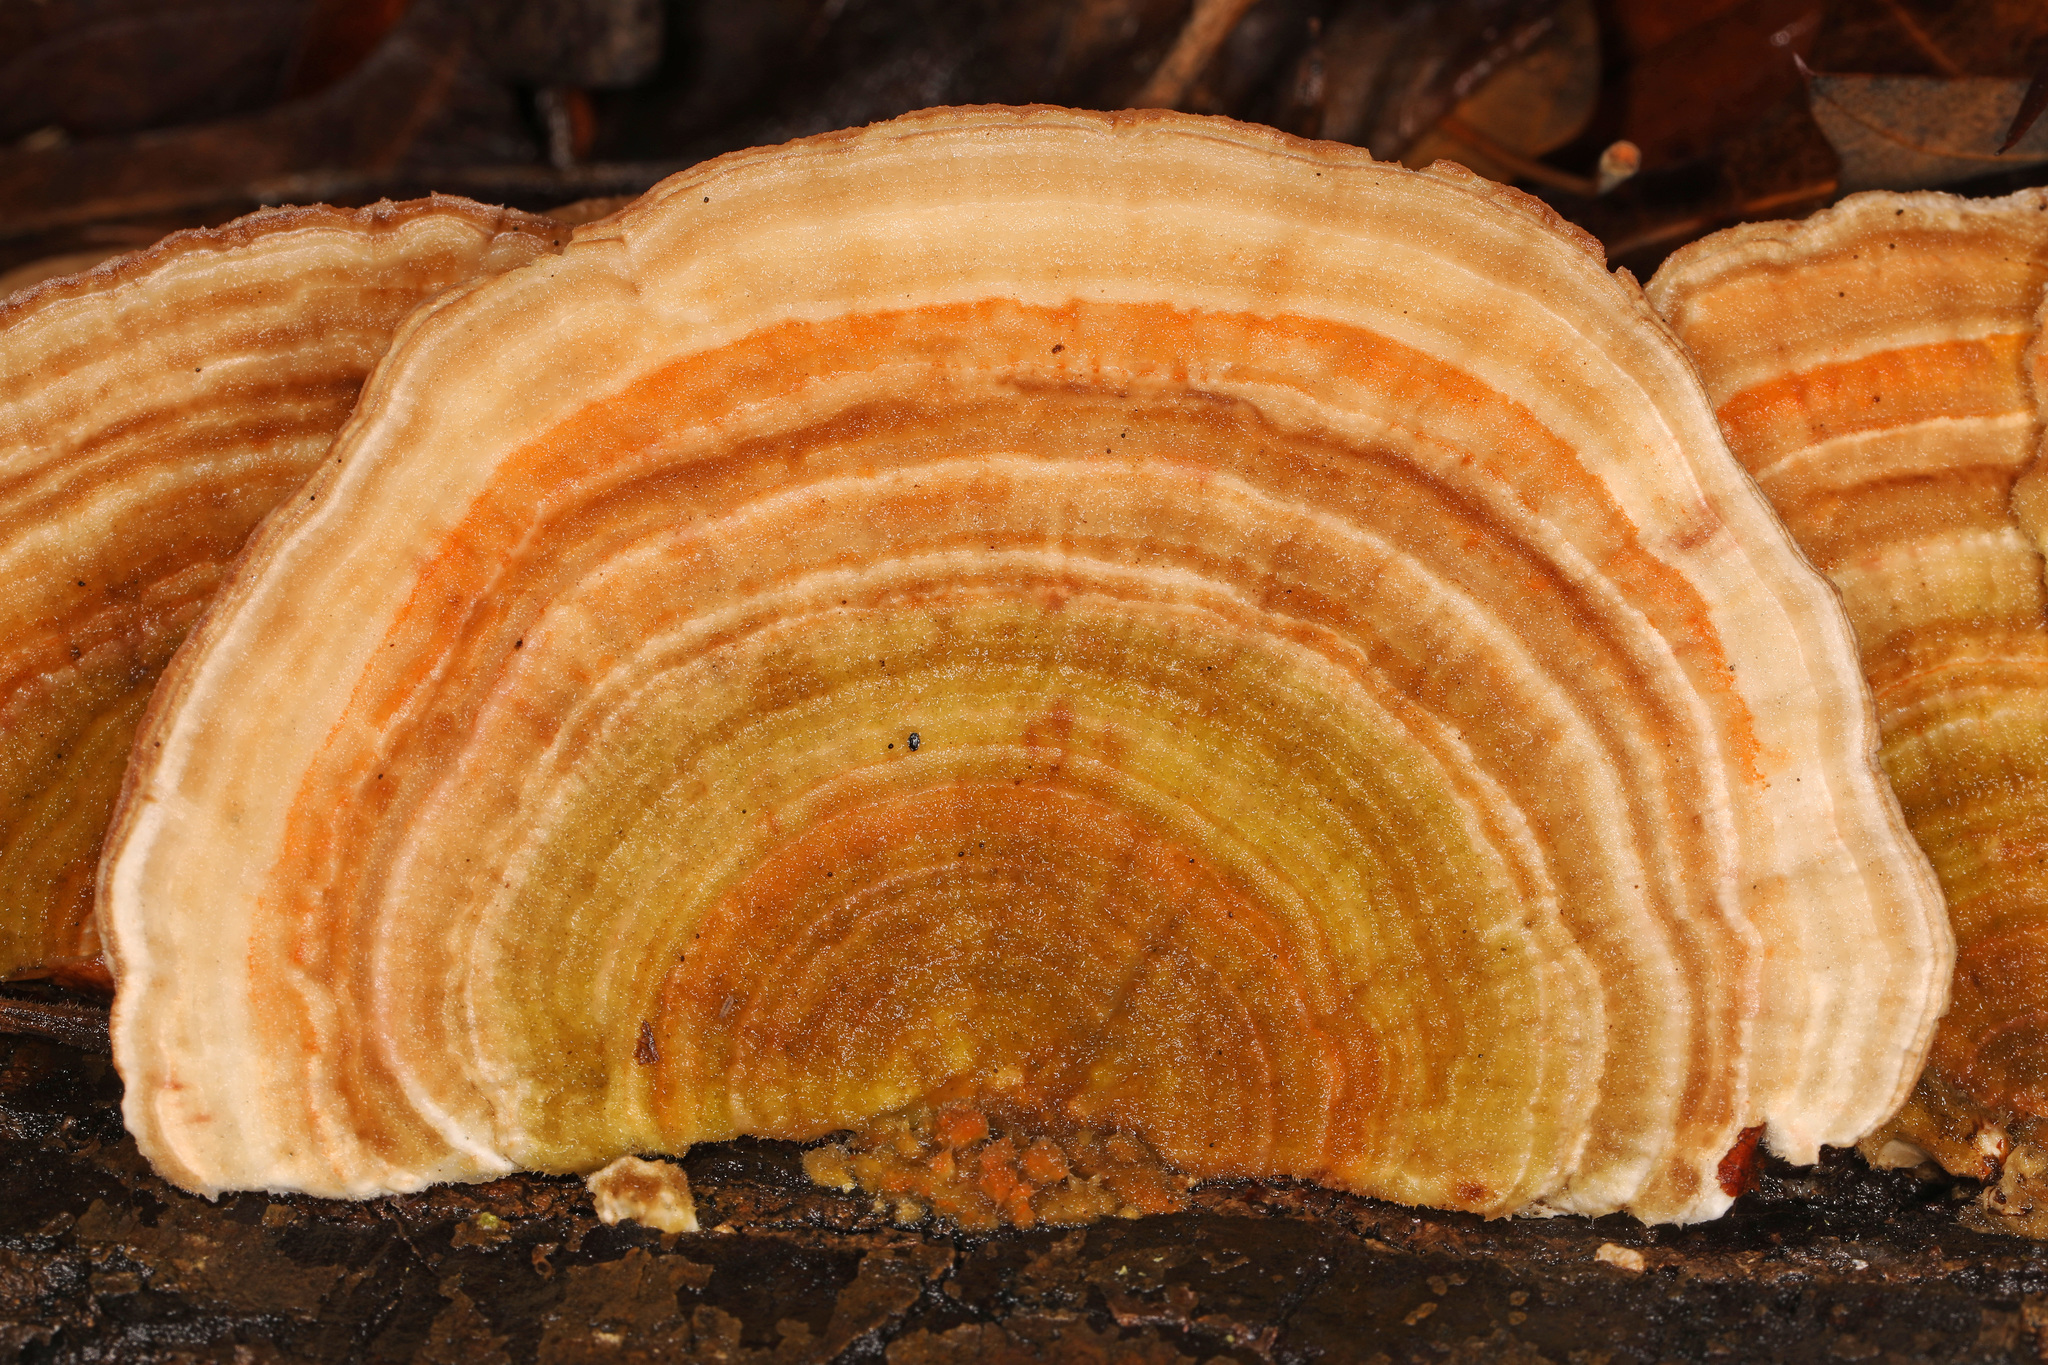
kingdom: Fungi
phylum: Basidiomycota
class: Agaricomycetes
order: Polyporales
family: Polyporaceae
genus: Lenzites
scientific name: Lenzites betulinus
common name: Birch mazegill
